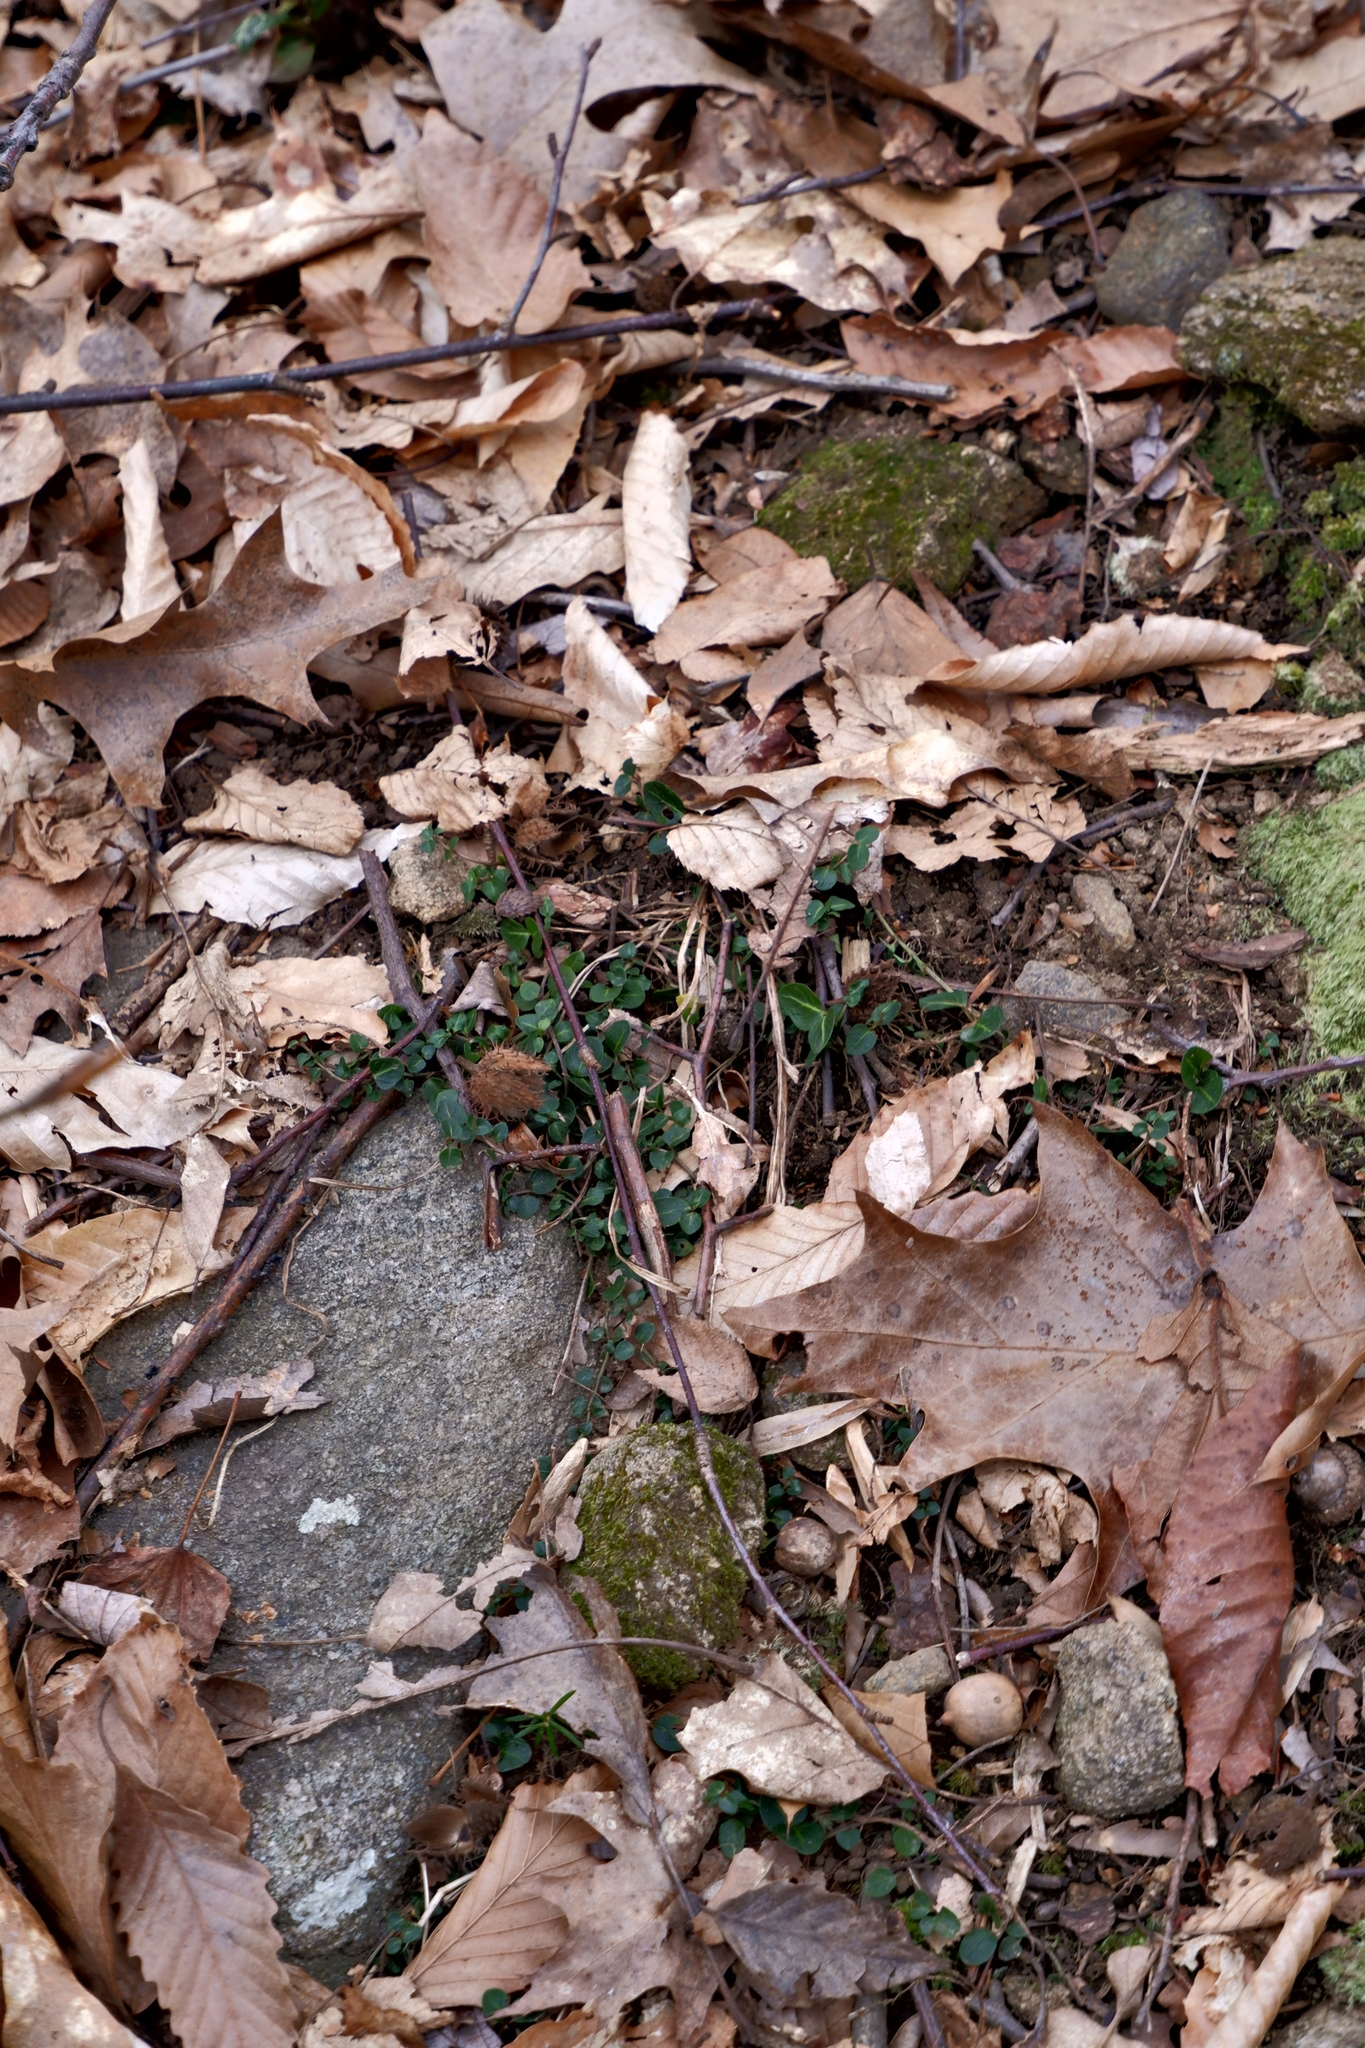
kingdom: Plantae
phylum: Tracheophyta
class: Magnoliopsida
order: Gentianales
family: Rubiaceae
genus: Mitchella
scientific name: Mitchella repens
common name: Partridge-berry
